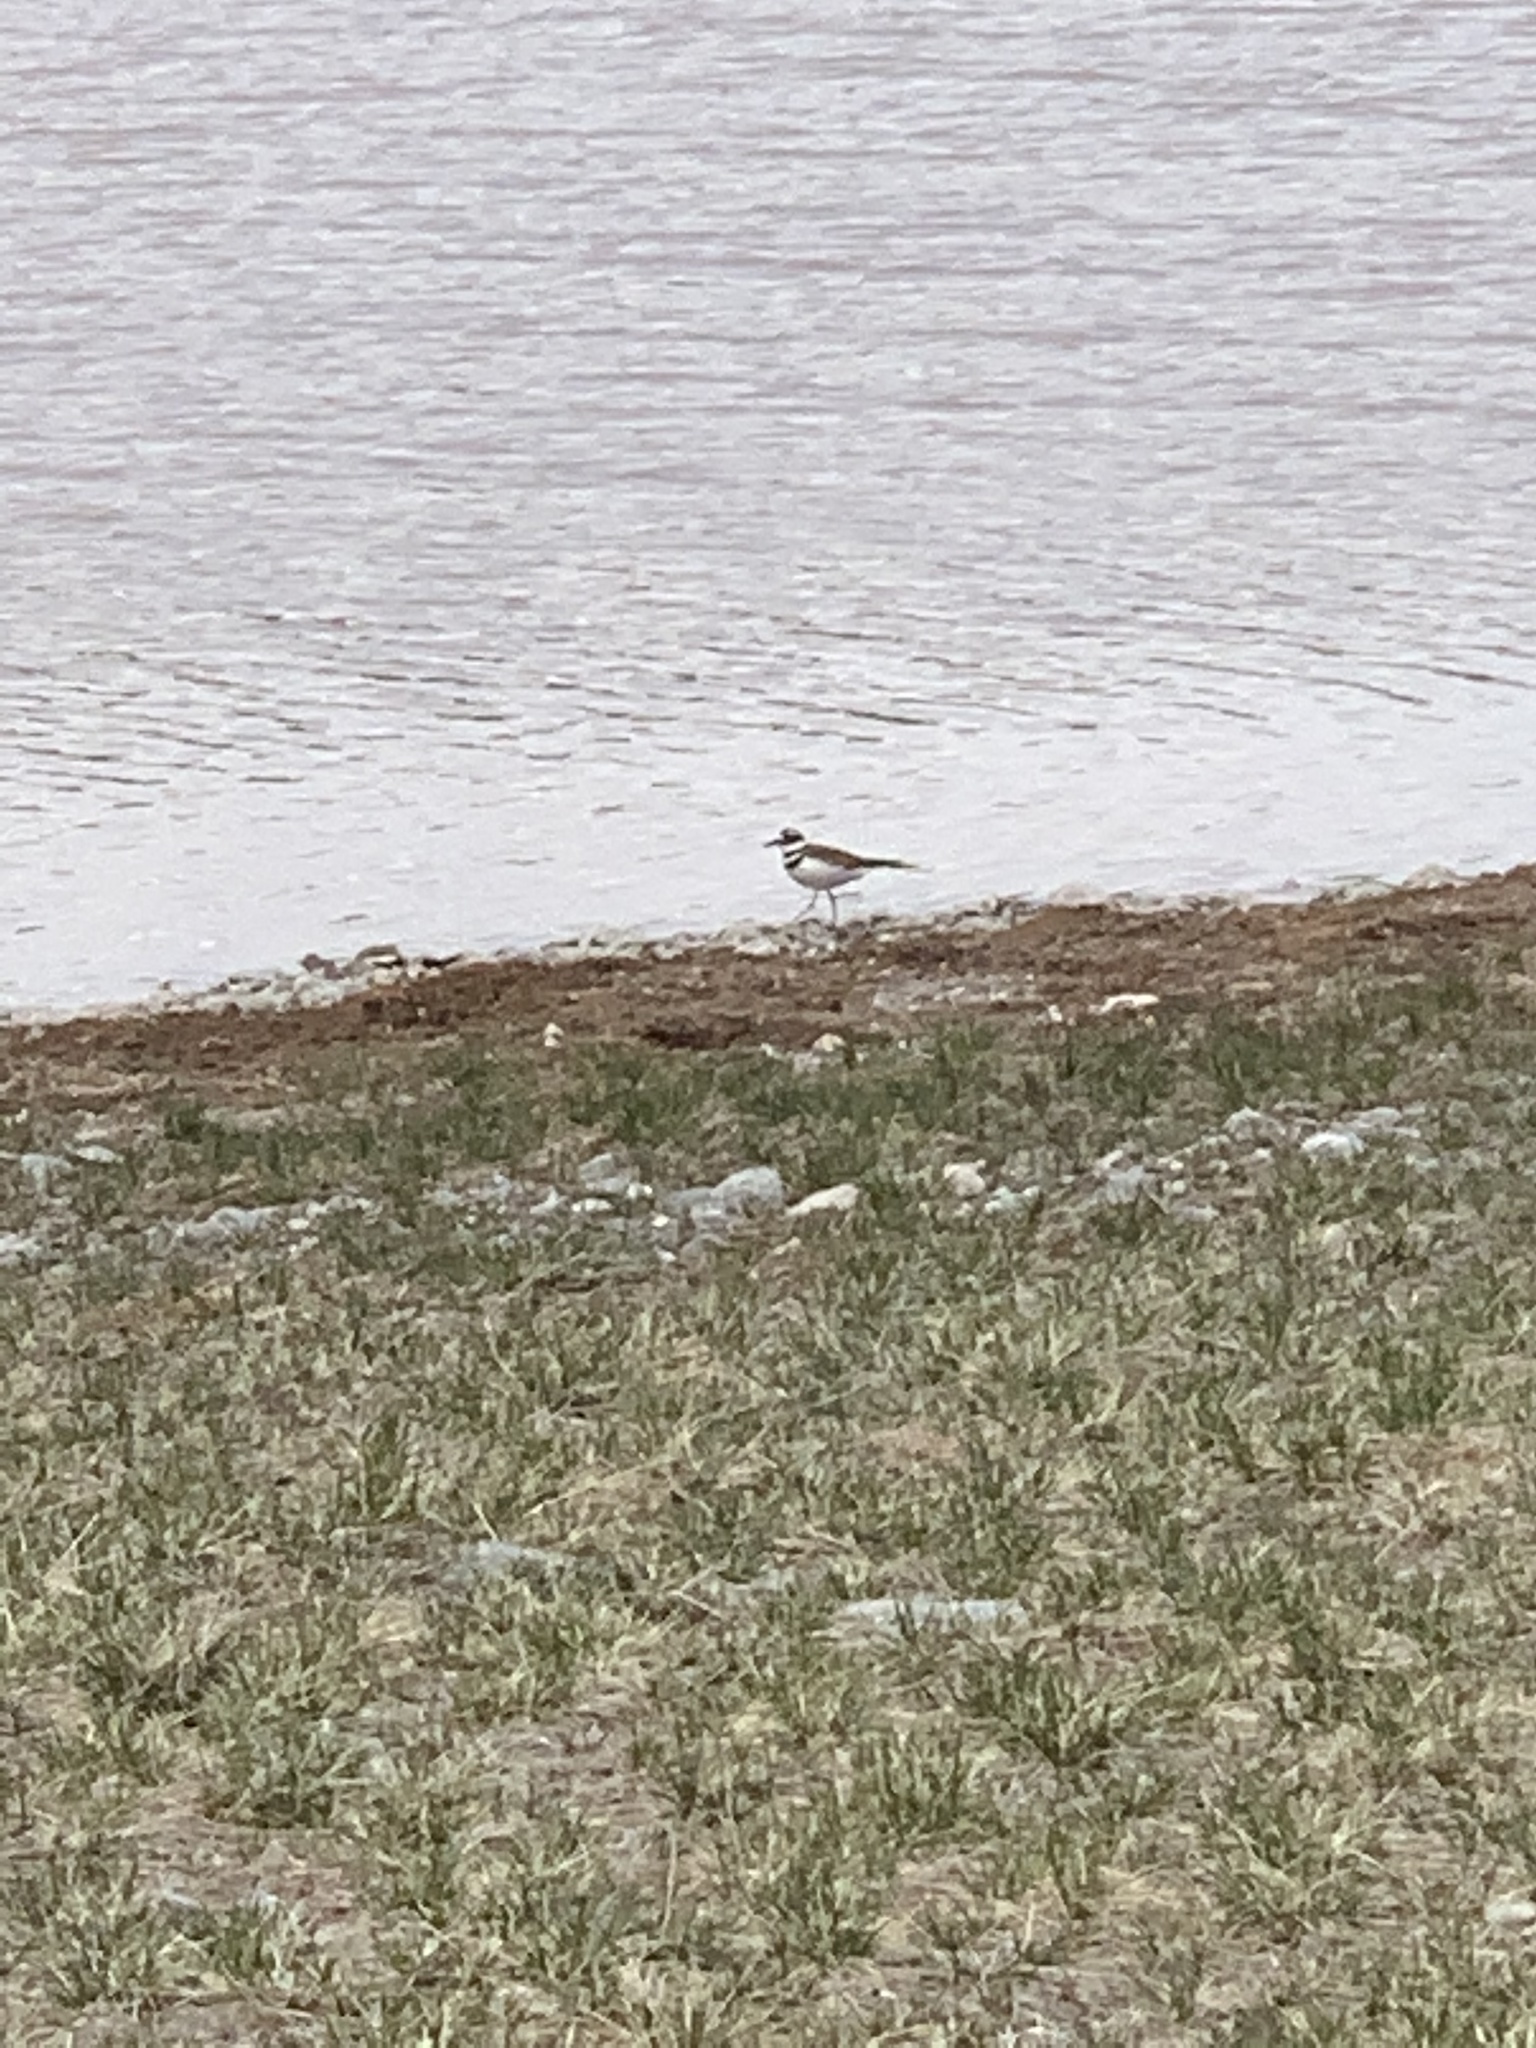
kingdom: Animalia
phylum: Chordata
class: Aves
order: Charadriiformes
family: Charadriidae
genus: Charadrius
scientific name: Charadrius vociferus
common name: Killdeer
